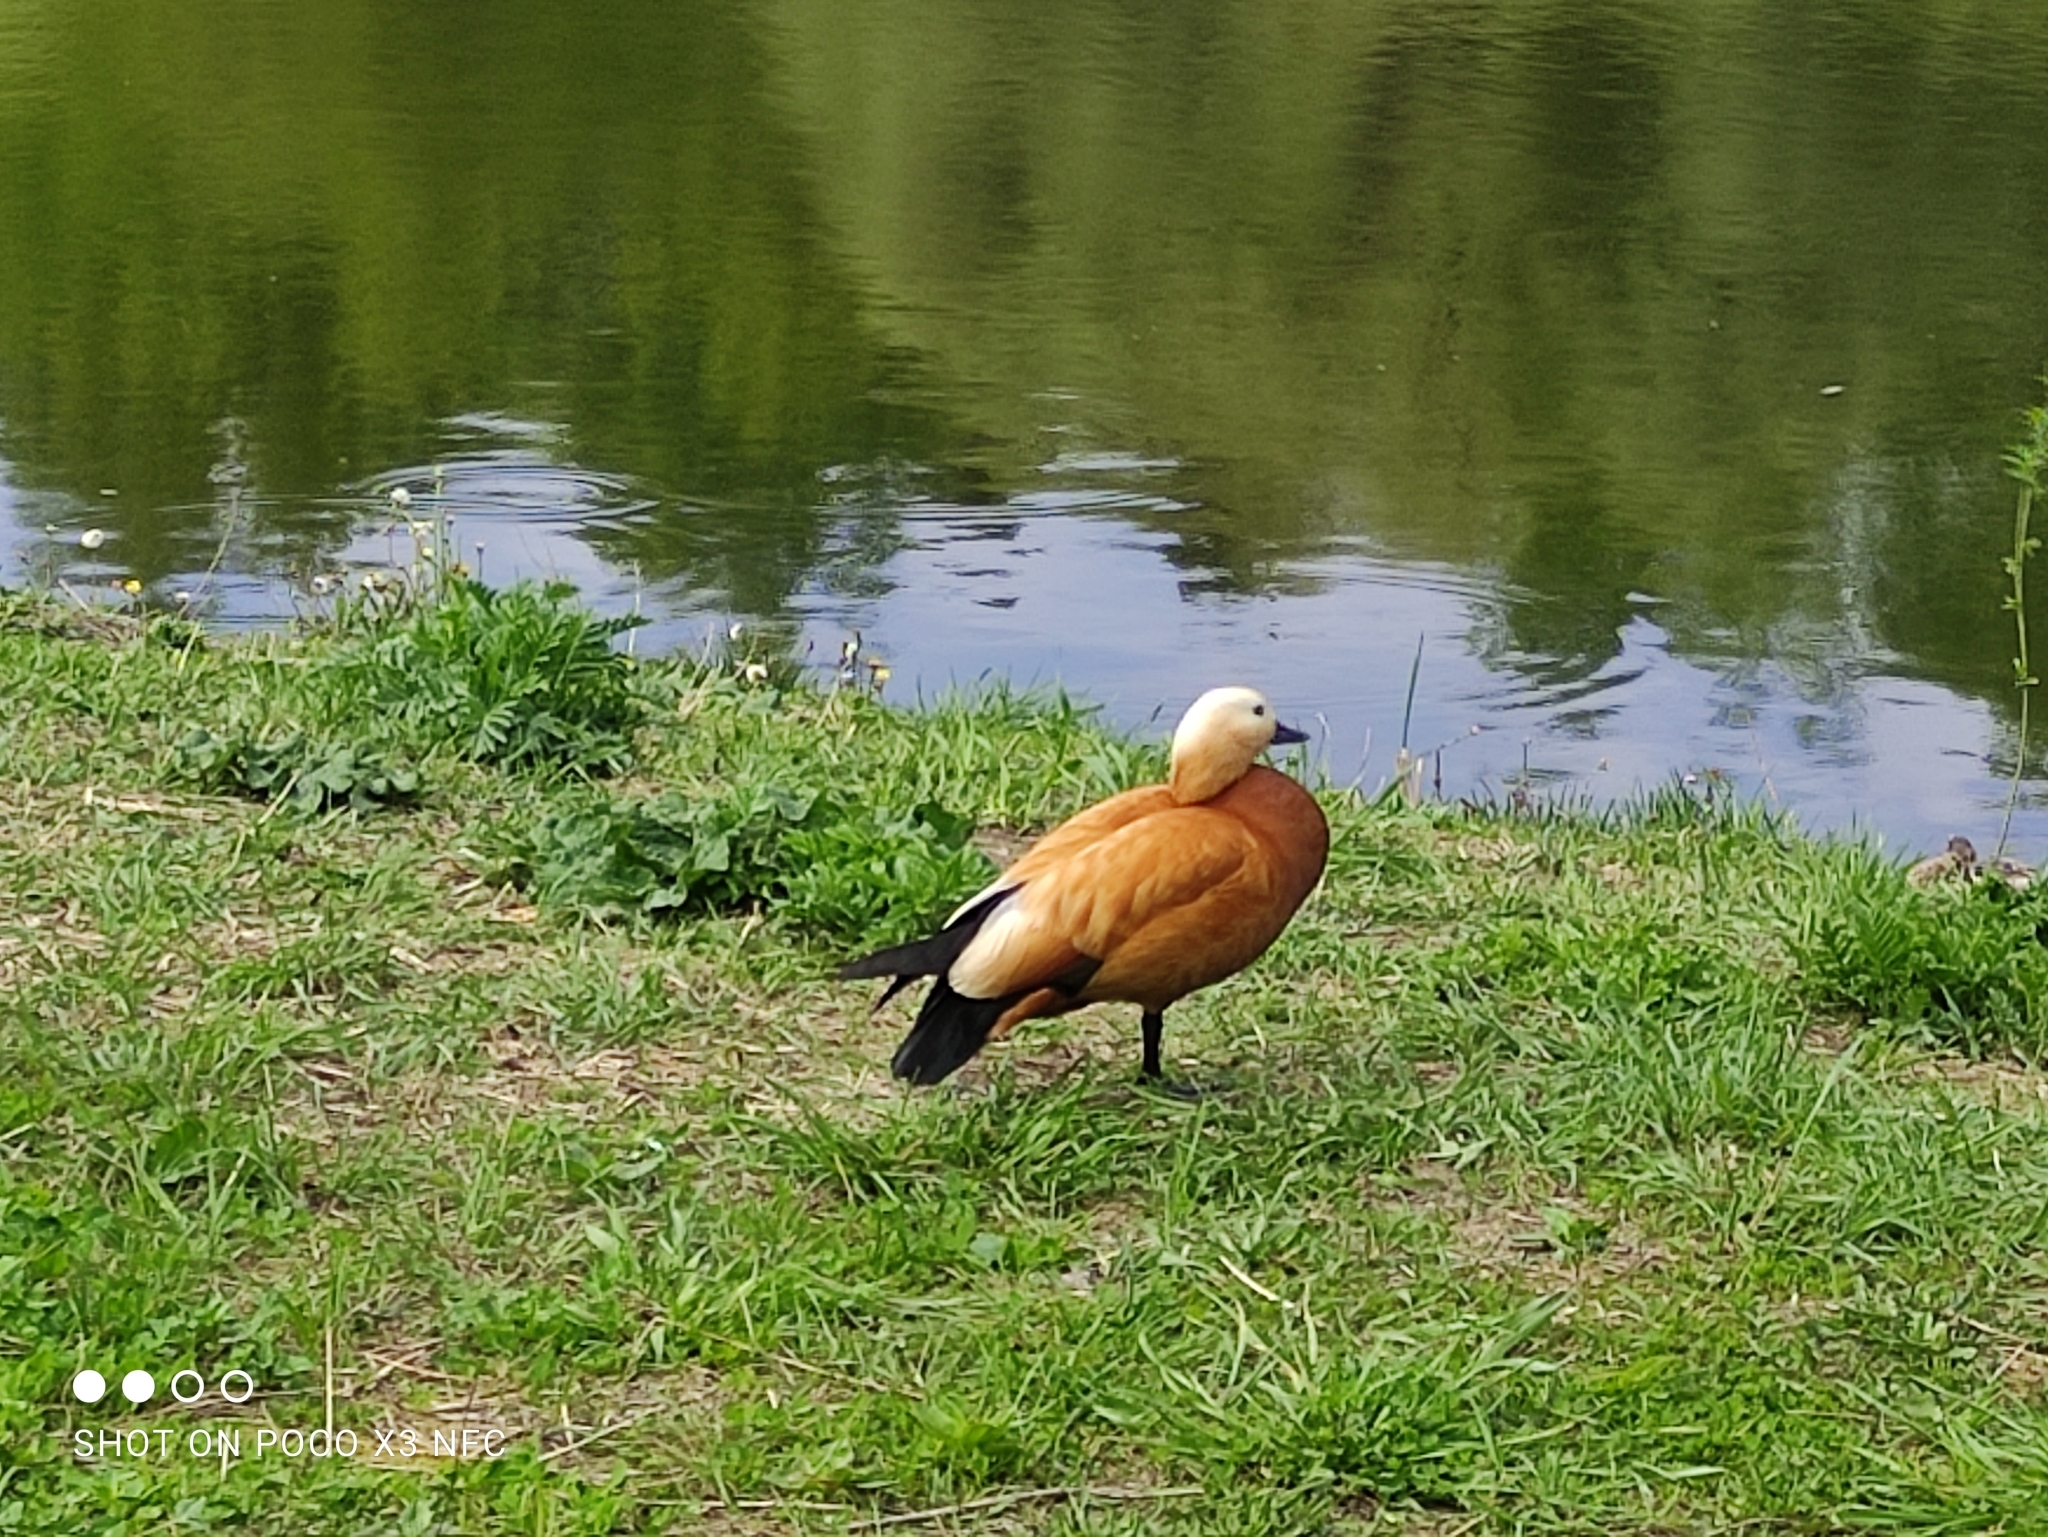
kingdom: Animalia
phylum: Chordata
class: Aves
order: Anseriformes
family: Anatidae
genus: Tadorna
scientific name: Tadorna ferruginea
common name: Ruddy shelduck
